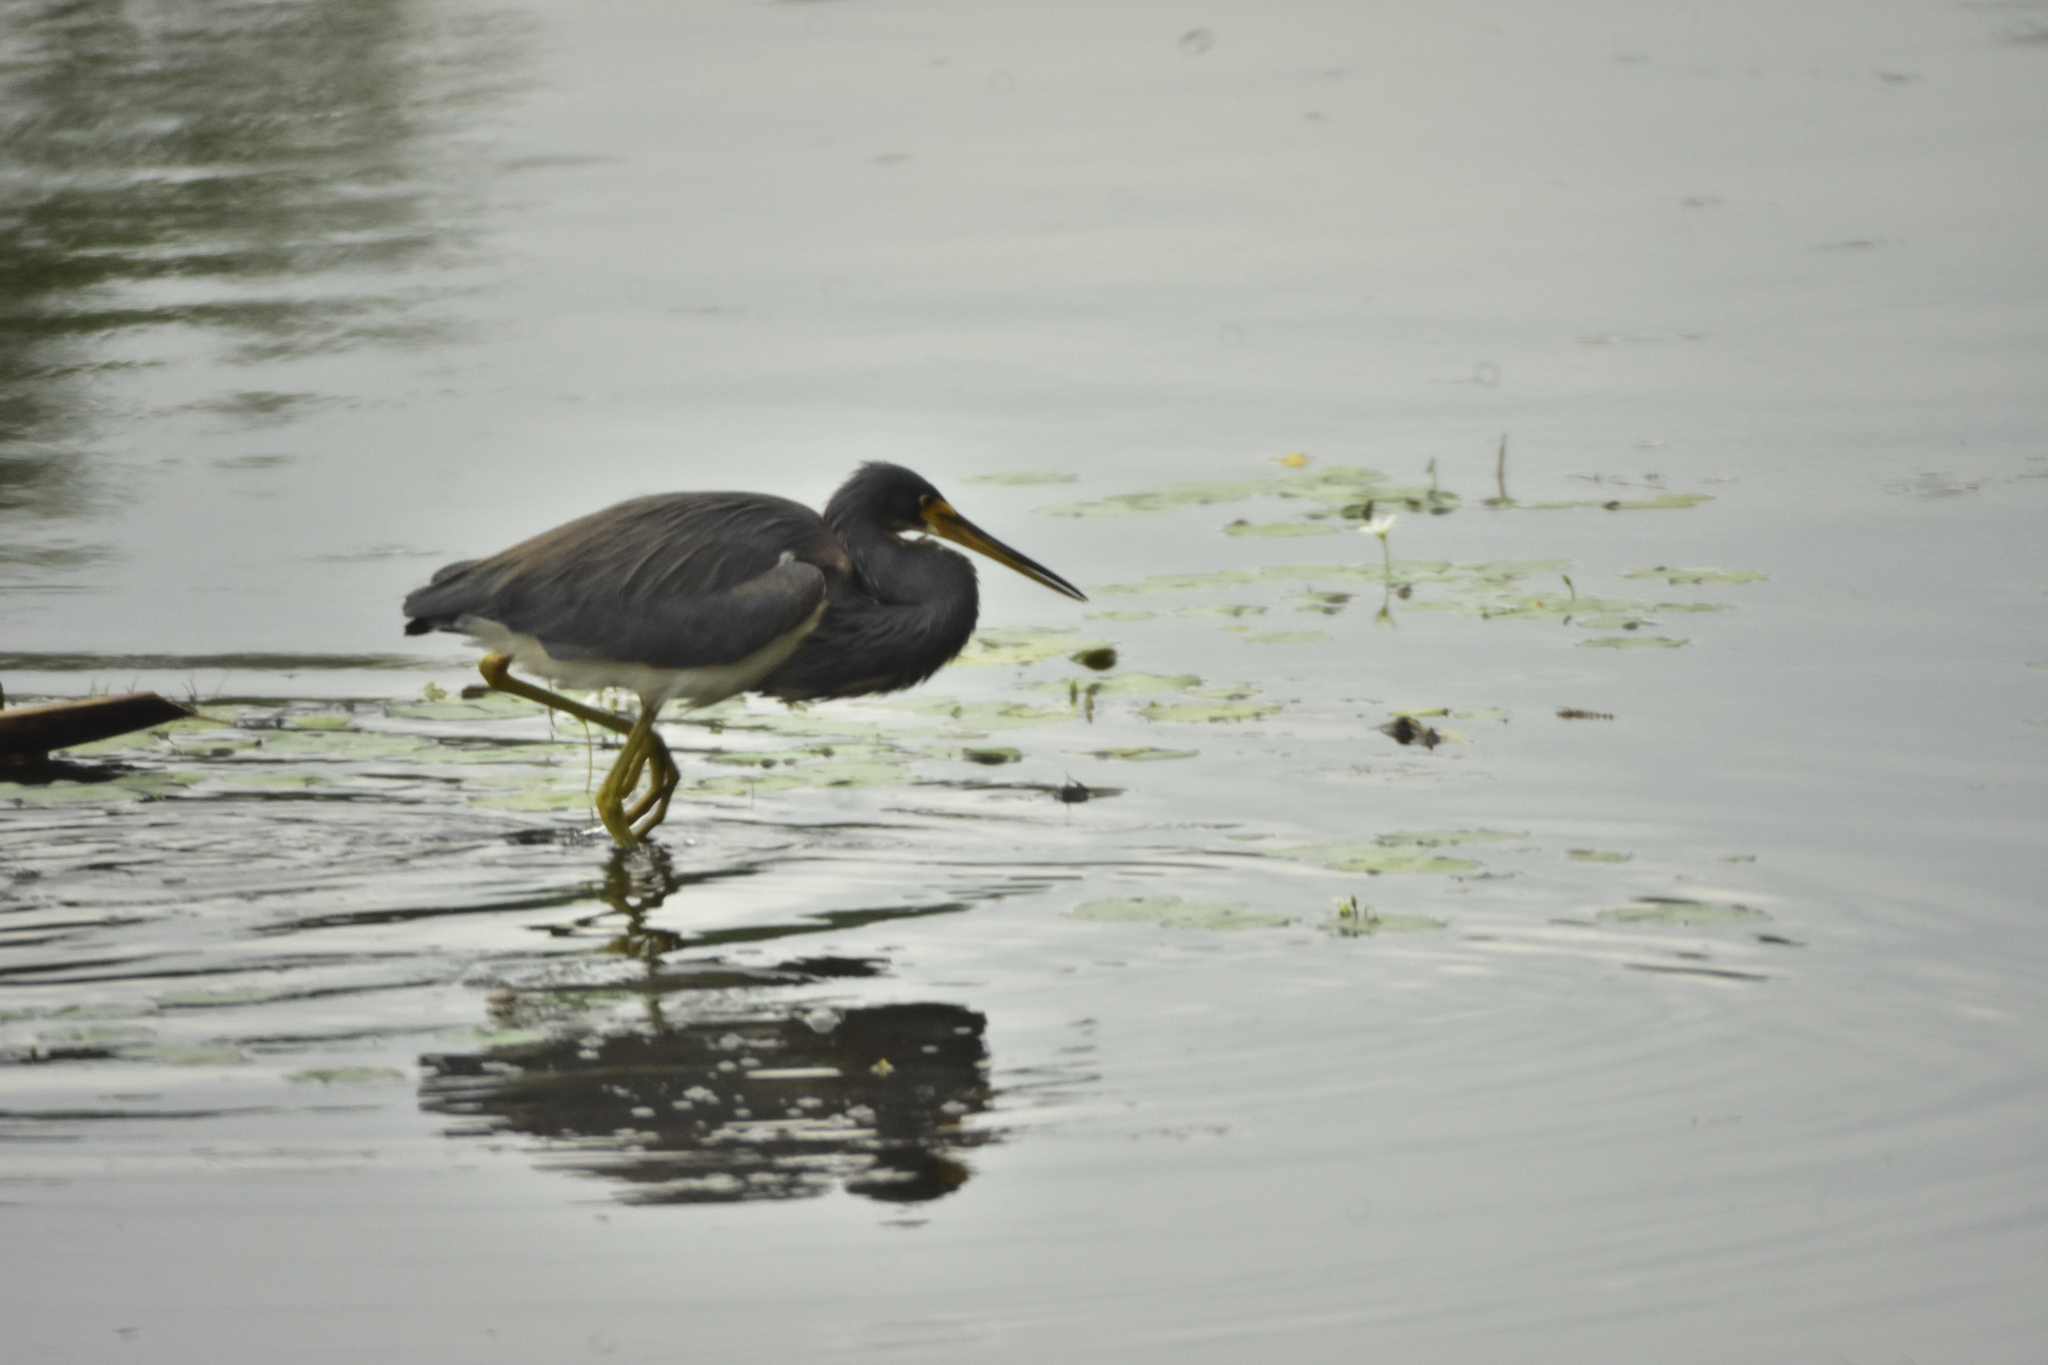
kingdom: Animalia
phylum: Chordata
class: Aves
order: Pelecaniformes
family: Ardeidae
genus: Egretta
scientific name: Egretta tricolor
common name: Tricolored heron
